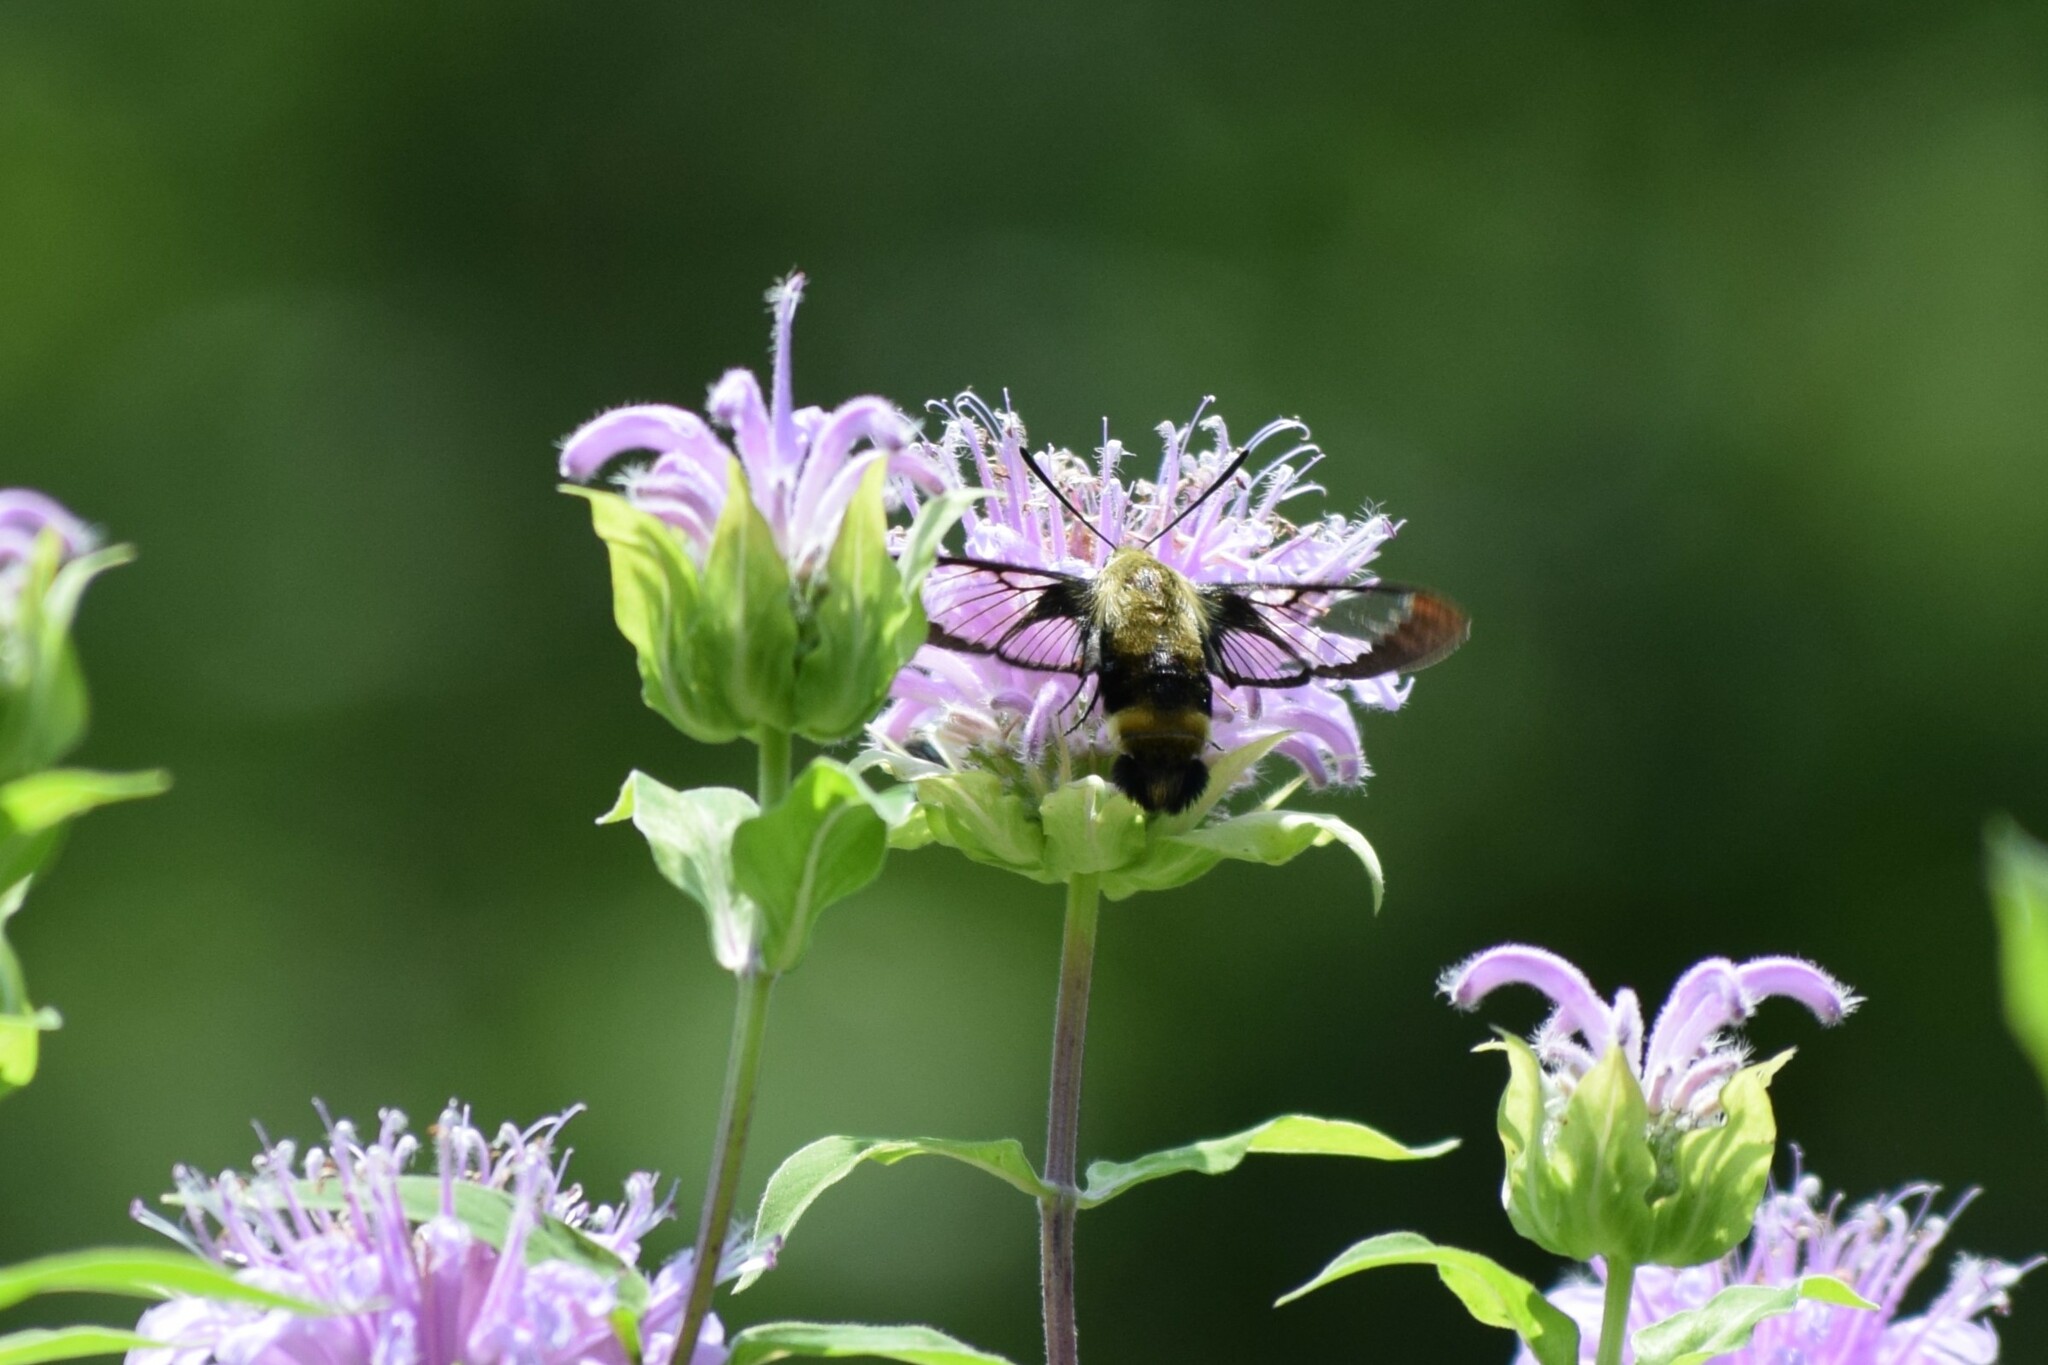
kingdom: Animalia
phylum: Arthropoda
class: Insecta
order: Lepidoptera
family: Sphingidae
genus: Hemaris
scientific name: Hemaris diffinis
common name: Bumblebee moth
